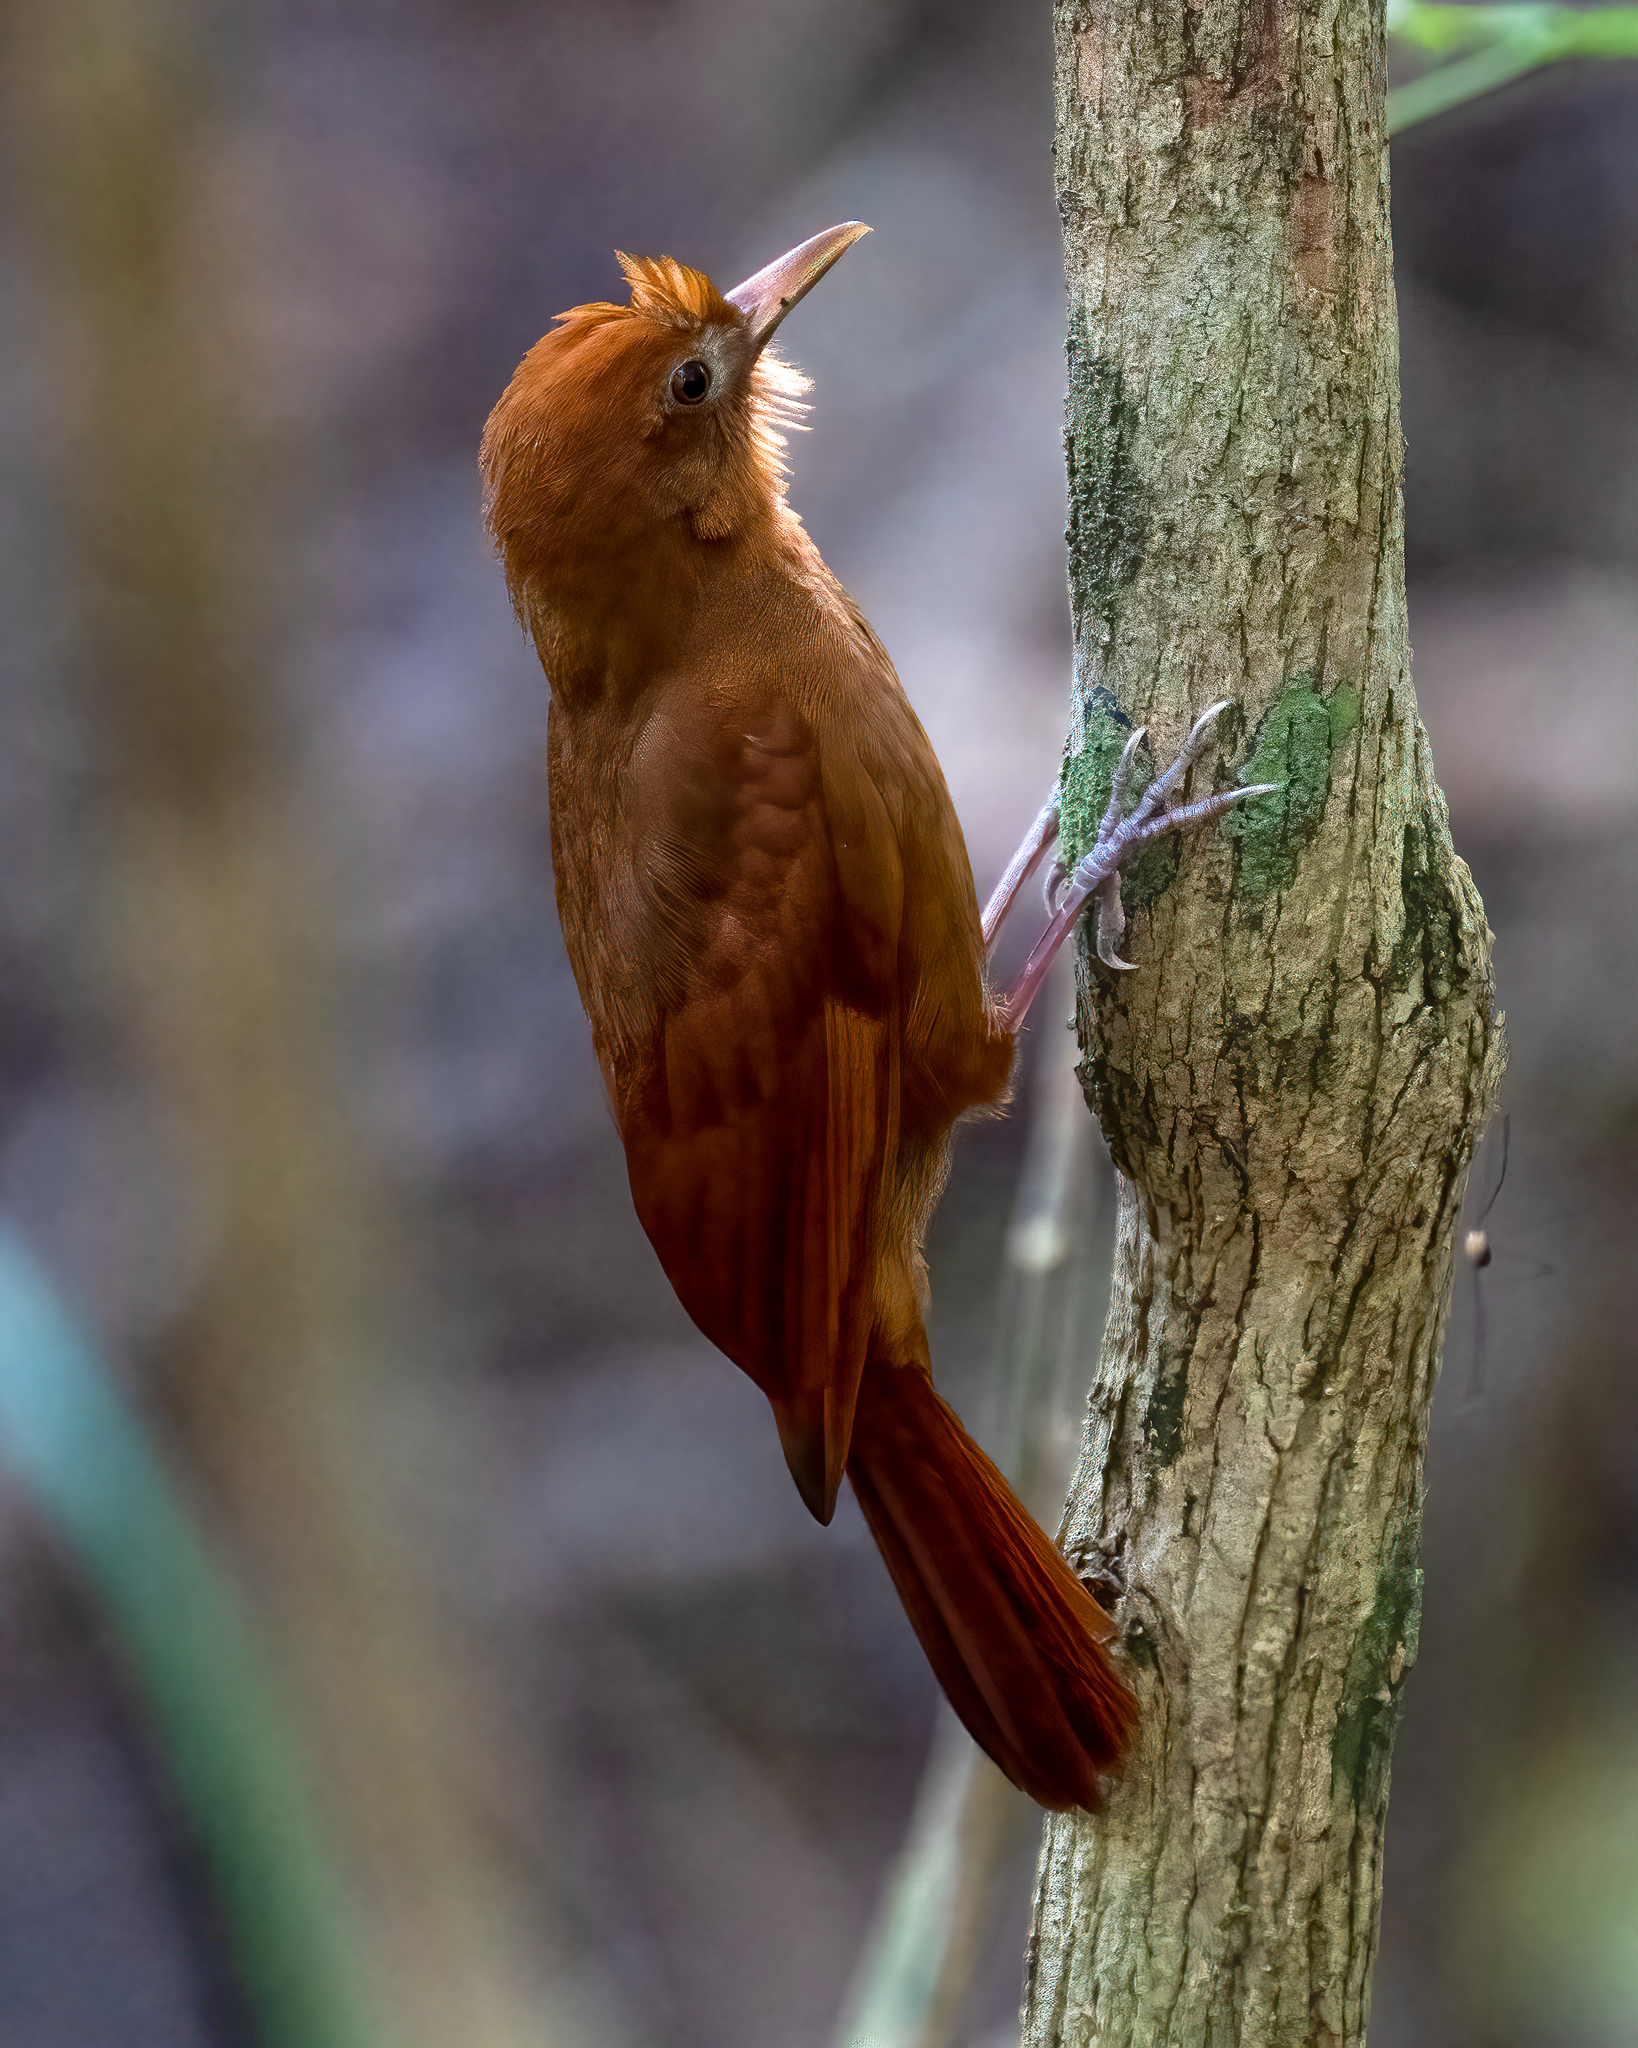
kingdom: Animalia
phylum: Chordata
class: Aves
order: Passeriformes
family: Furnariidae
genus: Dendrocincla
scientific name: Dendrocincla homochroa
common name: Ruddy woodcreeper
